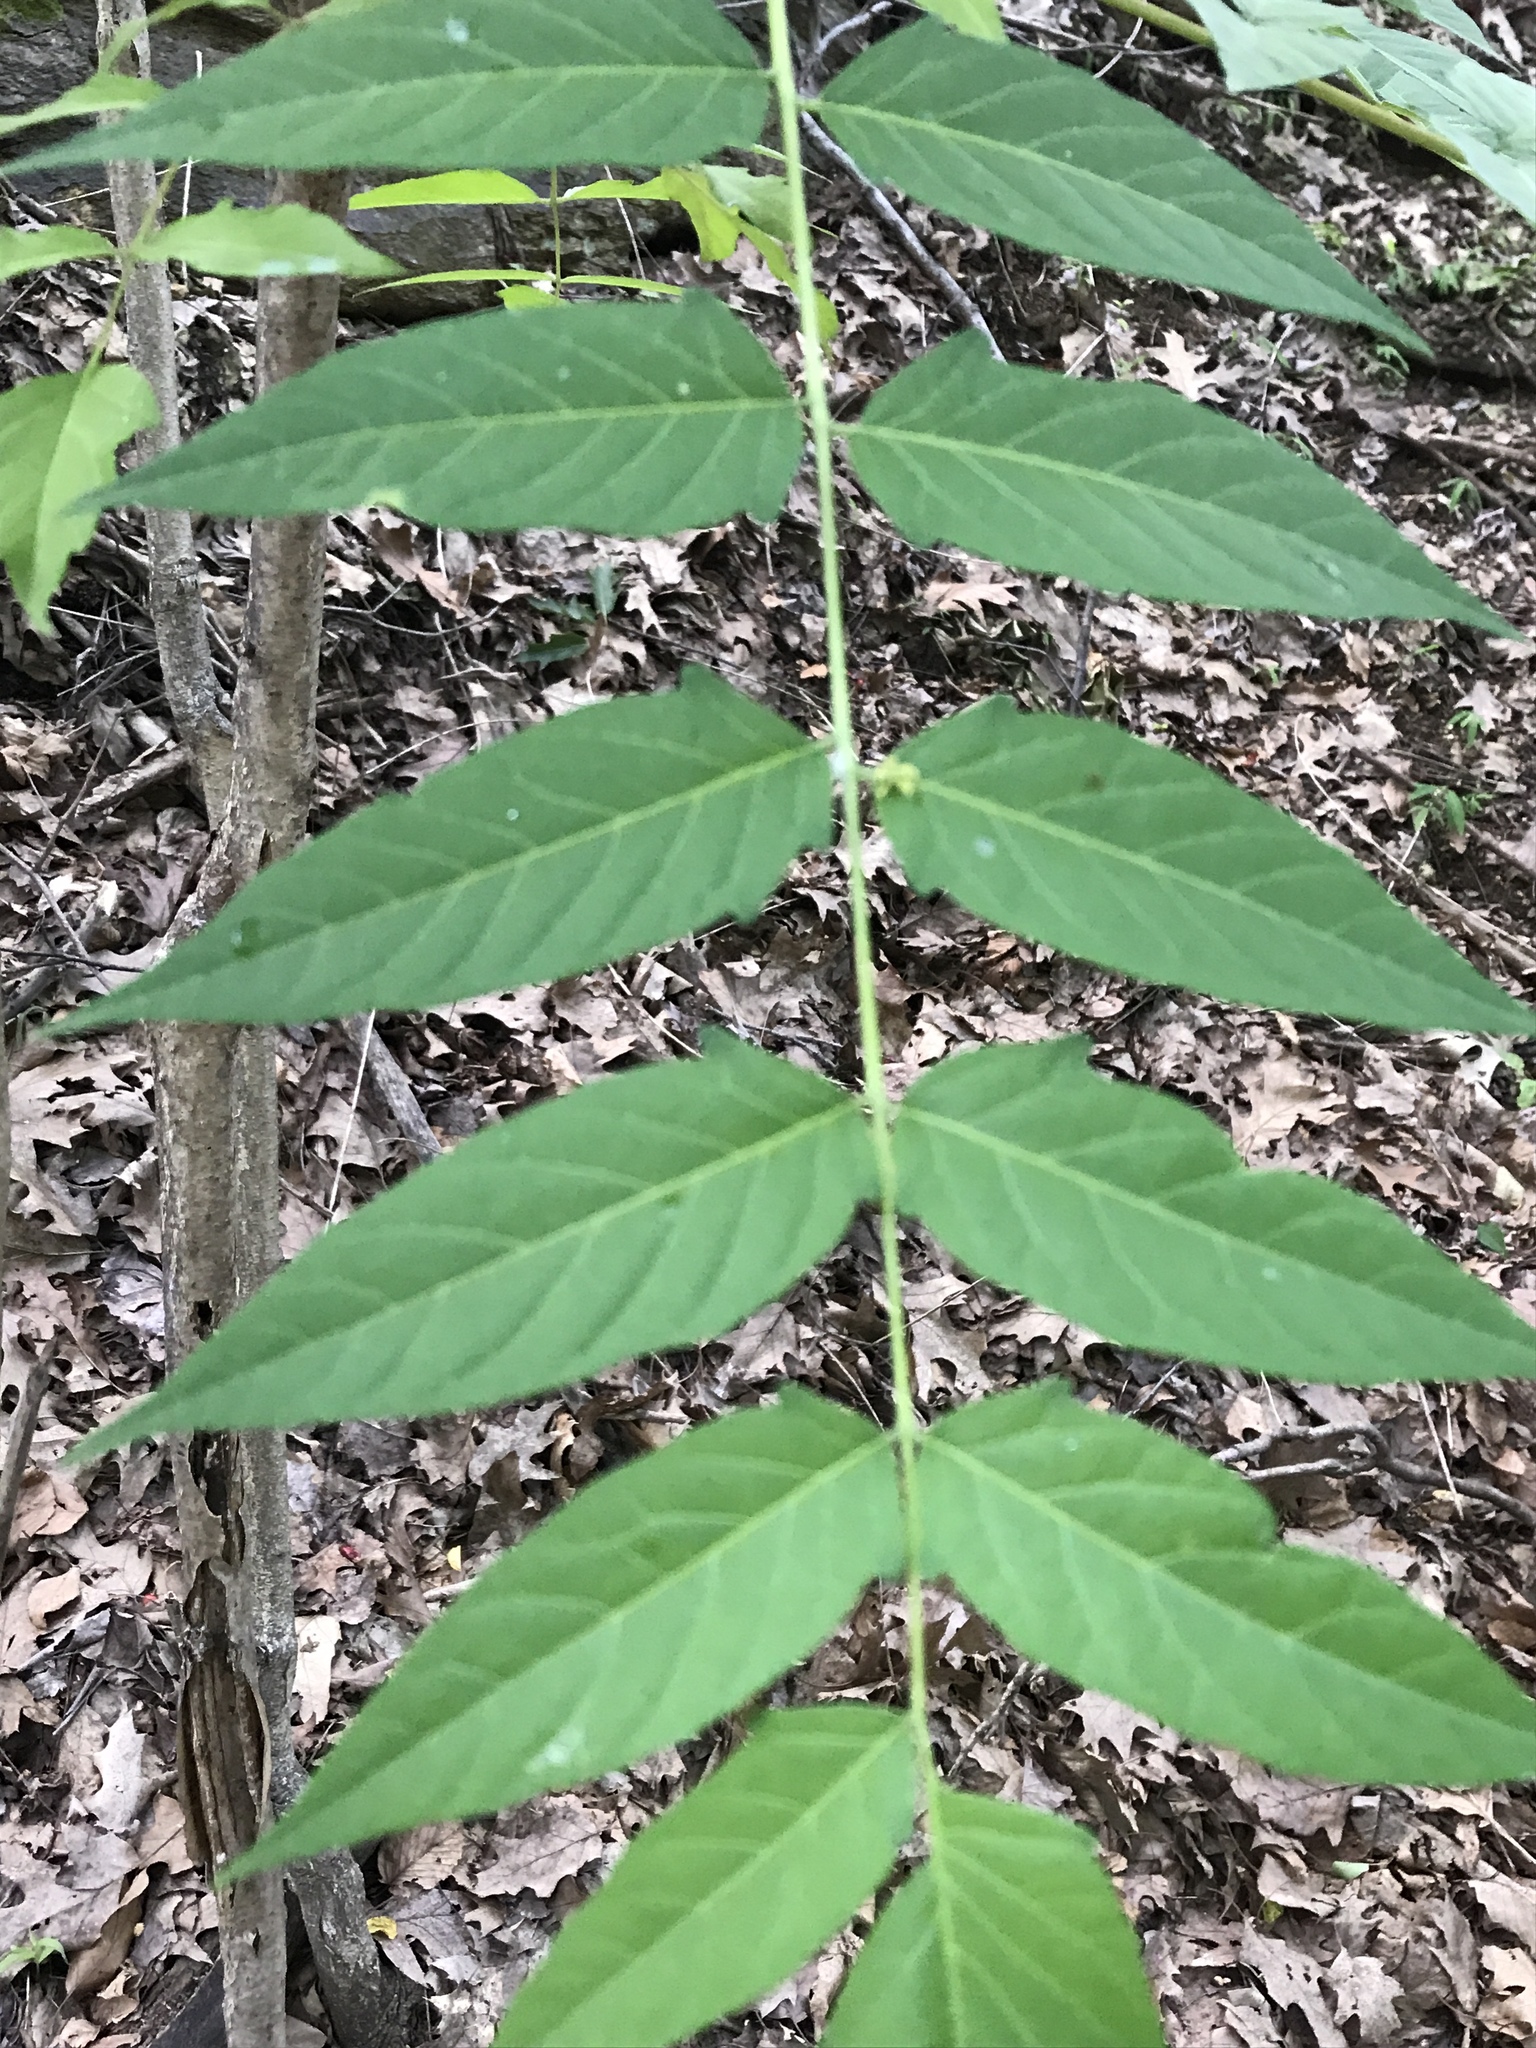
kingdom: Plantae
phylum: Tracheophyta
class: Magnoliopsida
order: Sapindales
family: Simaroubaceae
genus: Ailanthus
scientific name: Ailanthus altissima
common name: Tree-of-heaven
